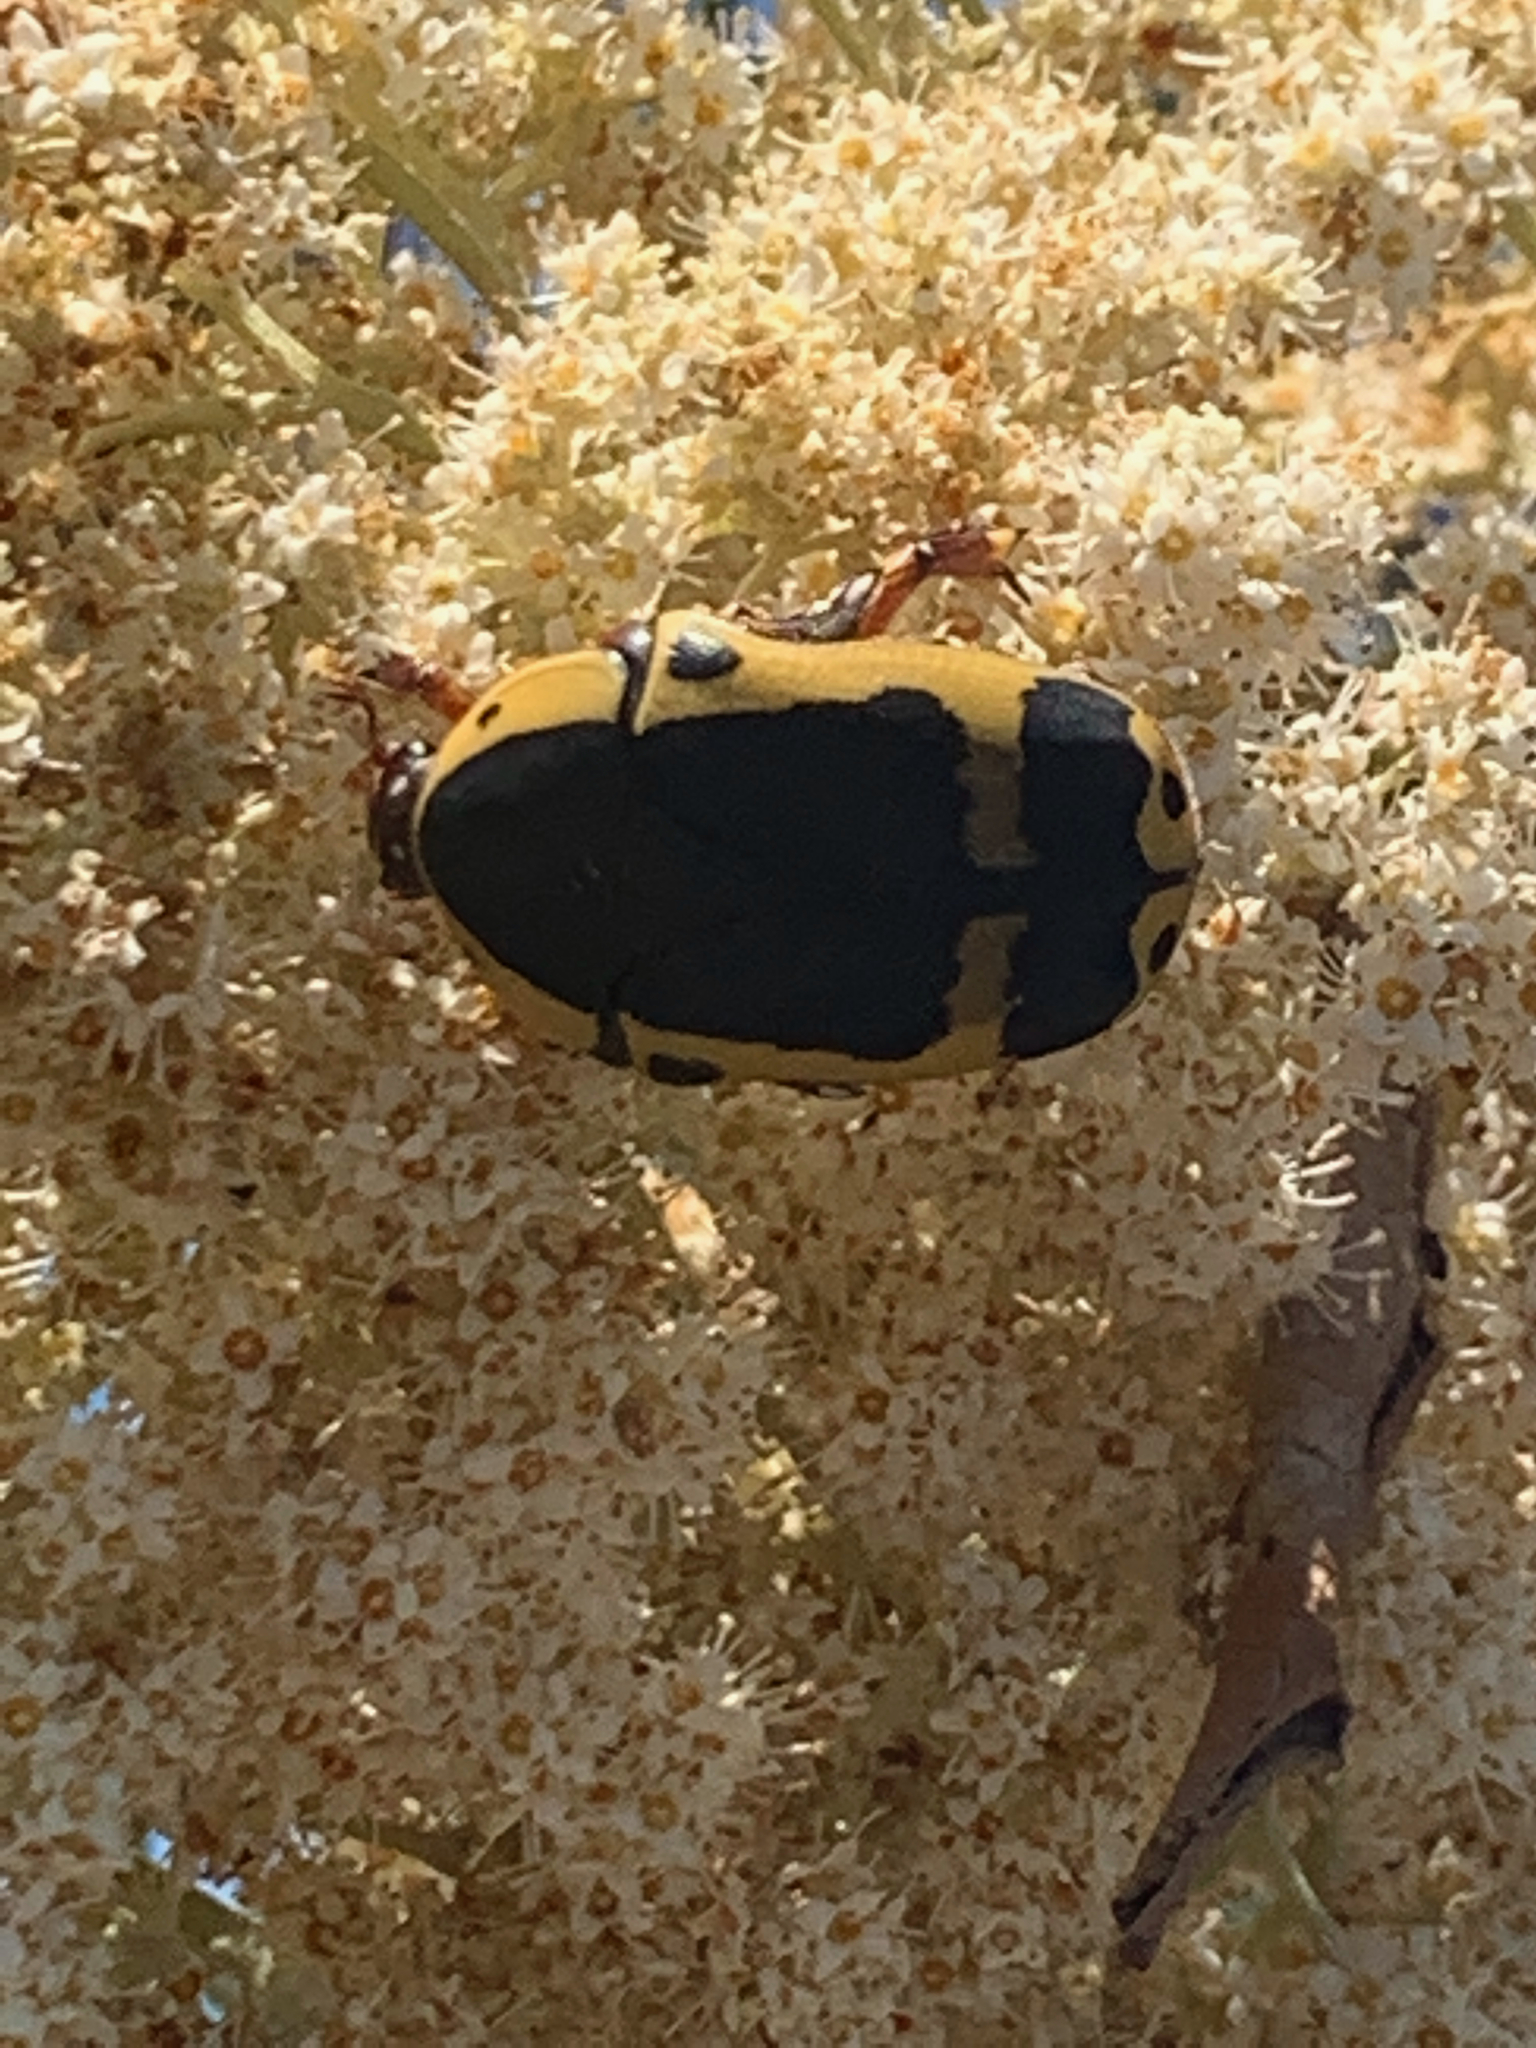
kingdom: Animalia
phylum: Arthropoda
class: Insecta
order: Coleoptera
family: Scarabaeidae
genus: Pachnoda
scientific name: Pachnoda sinuata
